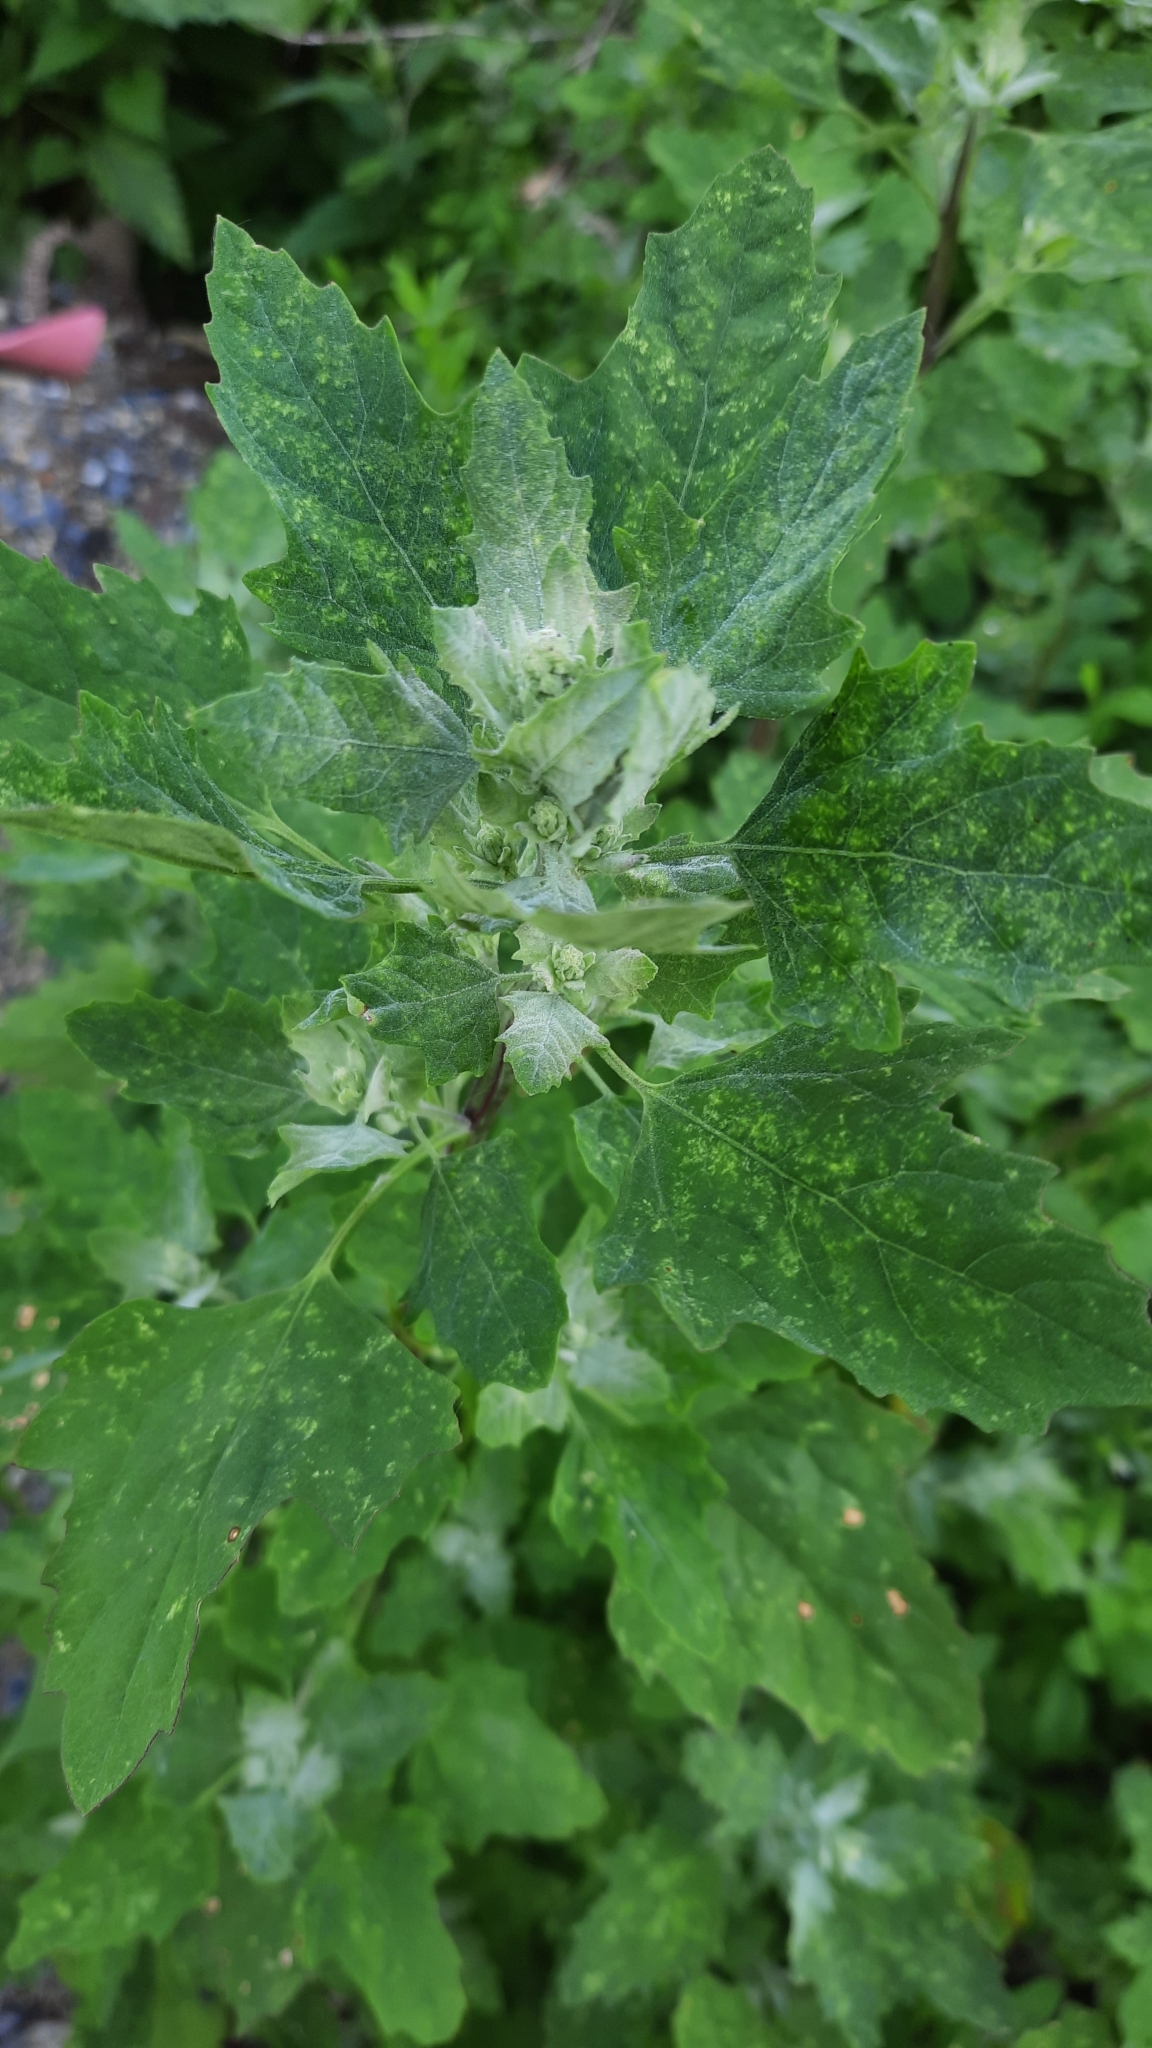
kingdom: Plantae
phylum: Tracheophyta
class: Magnoliopsida
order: Caryophyllales
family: Amaranthaceae
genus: Chenopodium
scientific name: Chenopodium album
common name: Fat-hen
